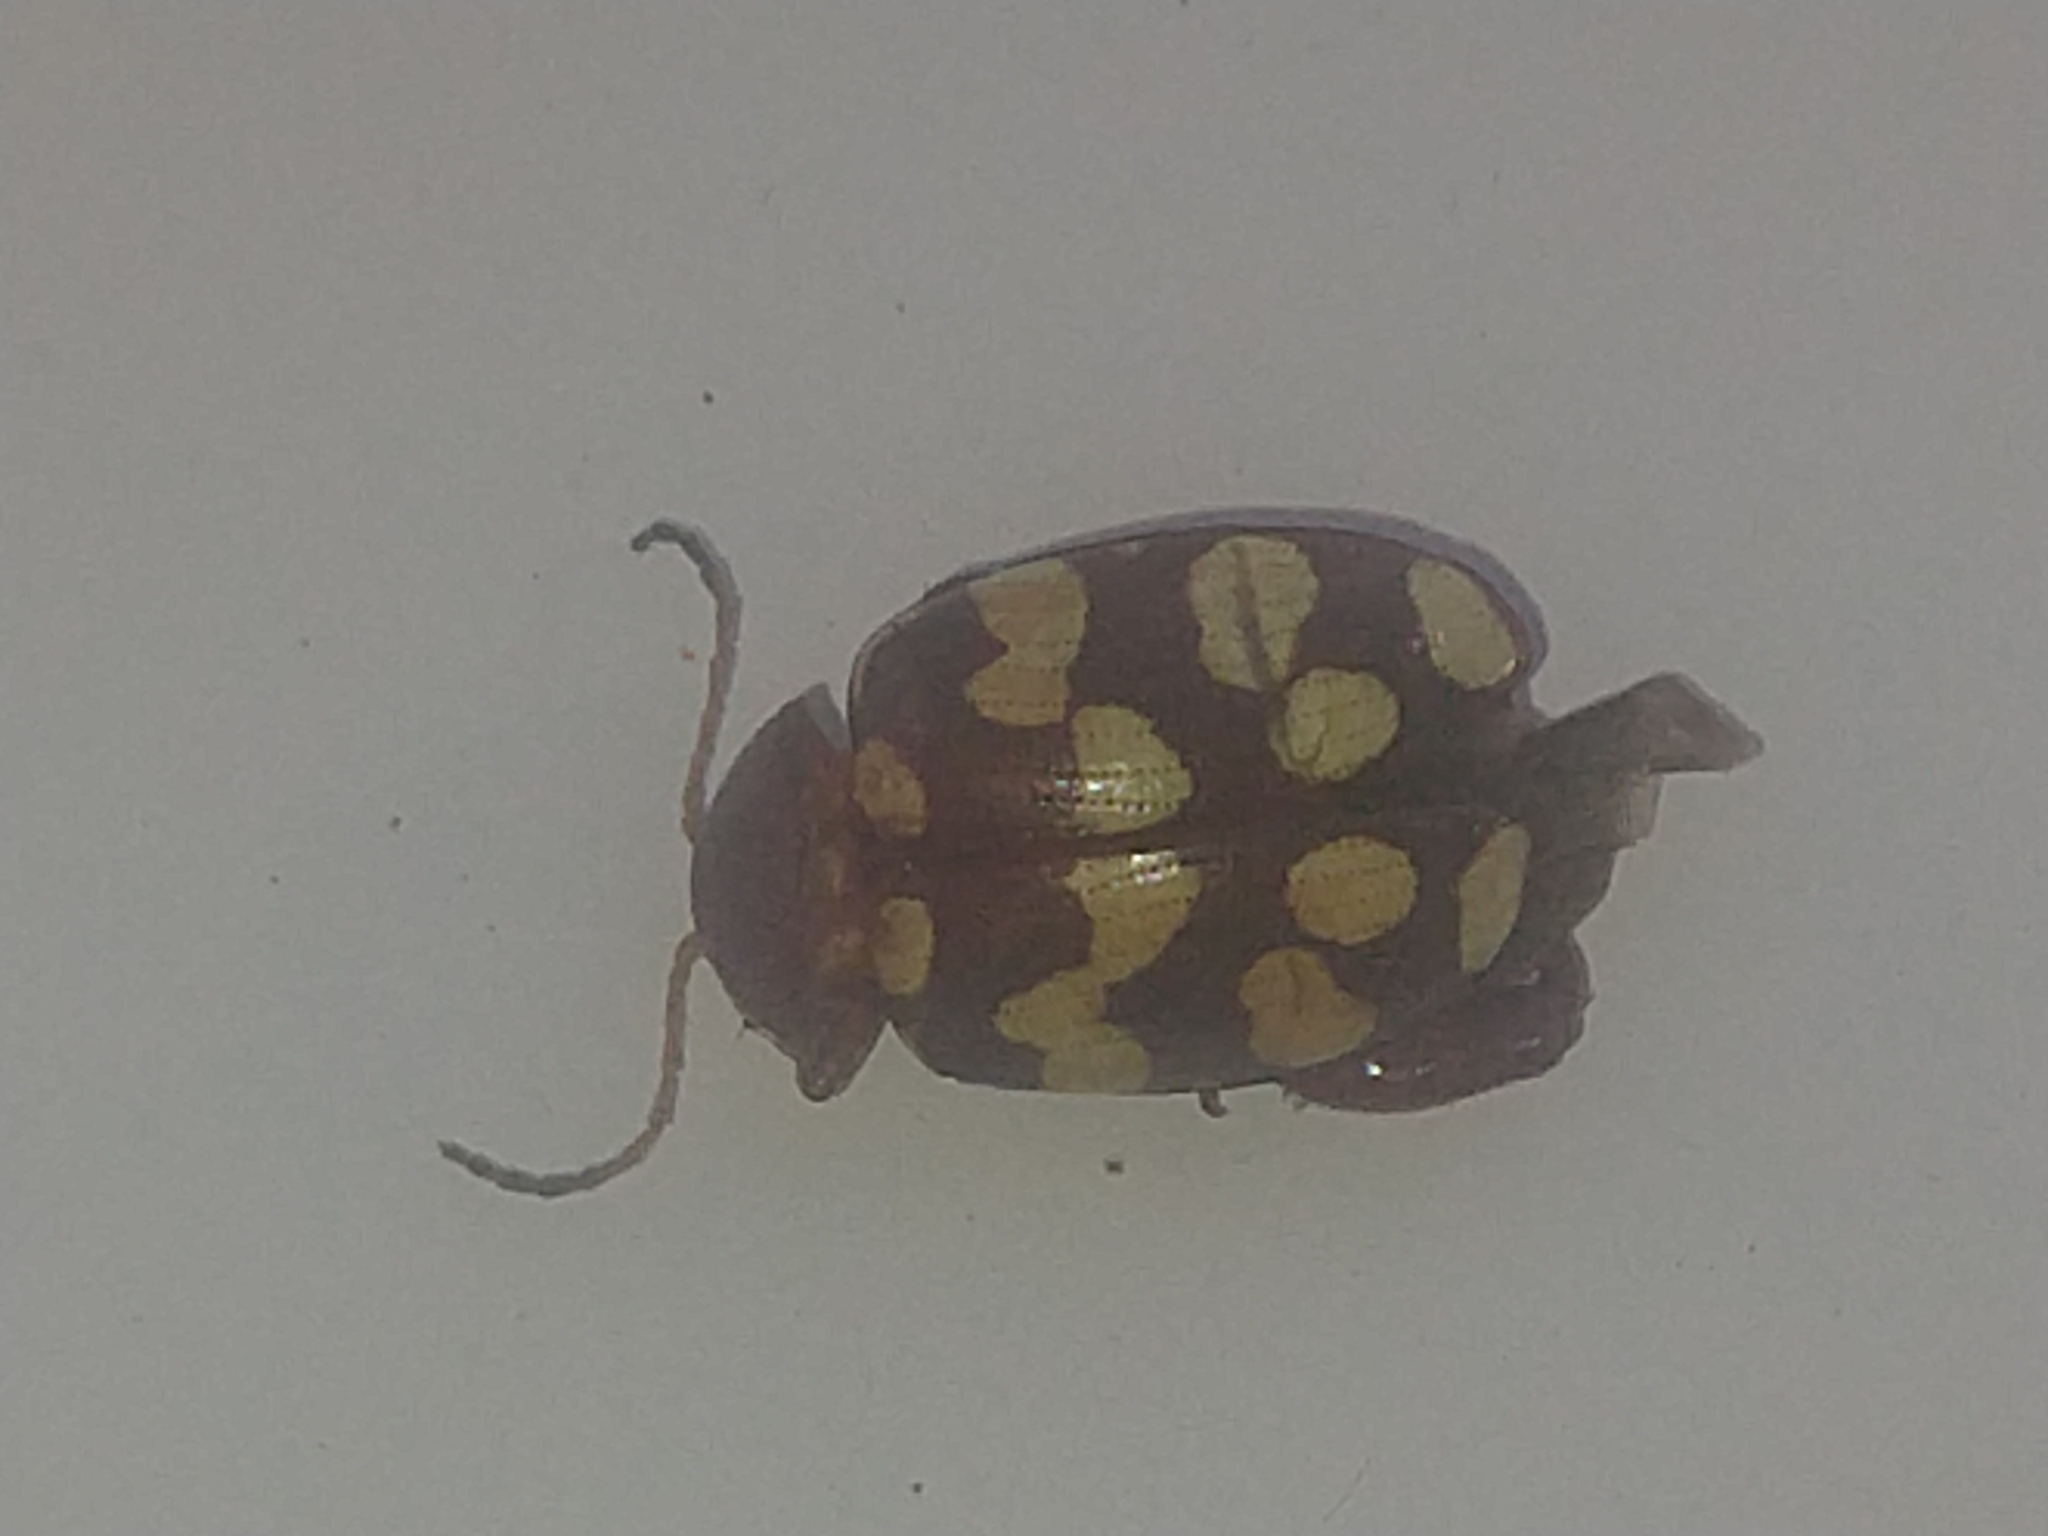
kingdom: Animalia
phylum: Arthropoda
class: Insecta
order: Coleoptera
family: Chrysomelidae
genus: Notozona
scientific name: Notozona
